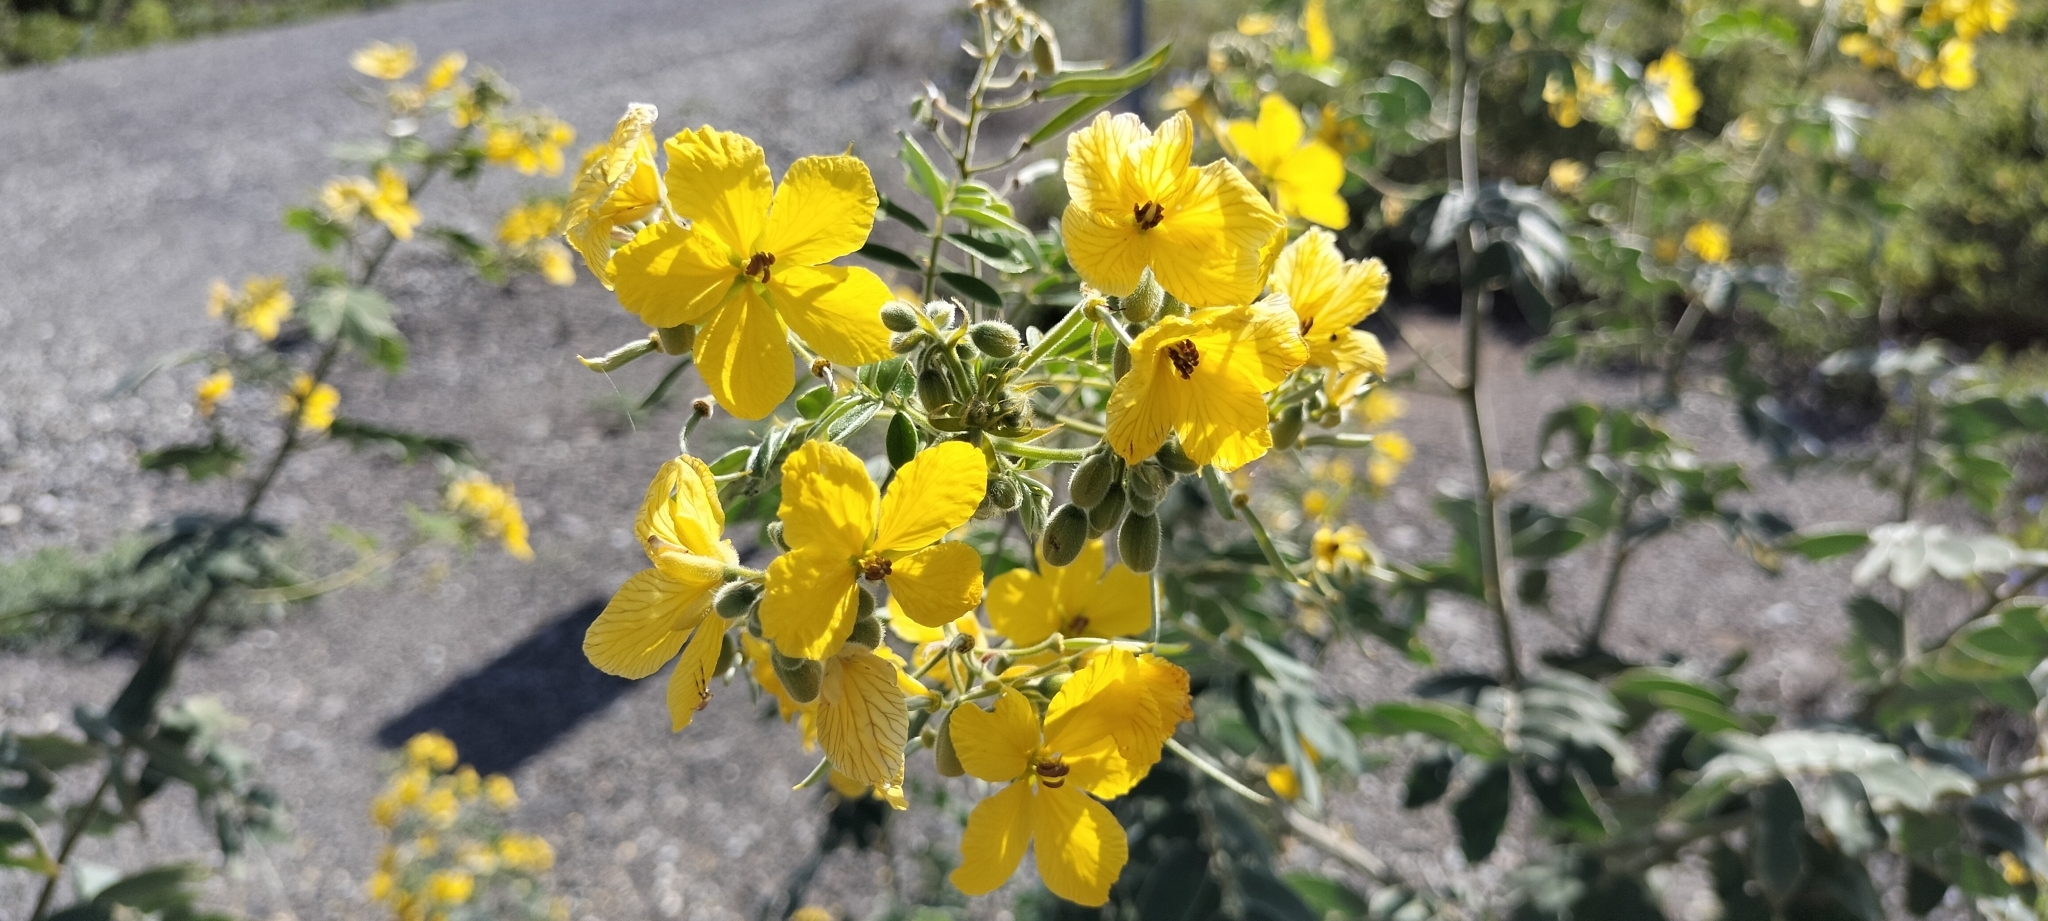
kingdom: Plantae
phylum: Tracheophyta
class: Magnoliopsida
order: Fabales
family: Fabaceae
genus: Senna
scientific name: Senna lindheimeriana
